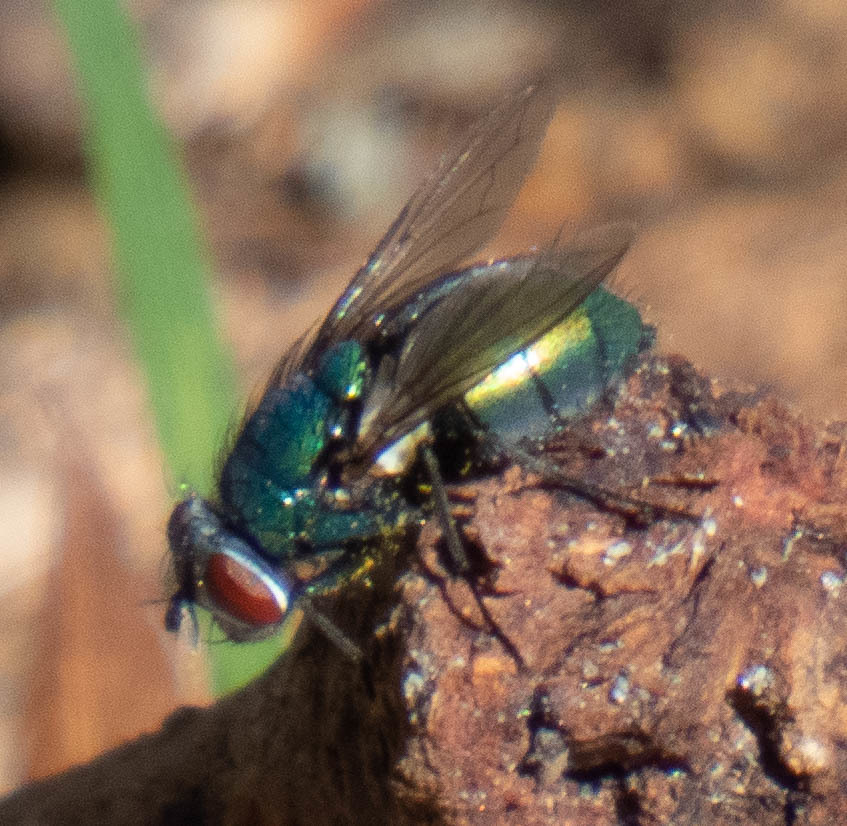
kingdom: Animalia
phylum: Arthropoda
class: Insecta
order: Diptera
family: Calliphoridae
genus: Lucilia
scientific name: Lucilia sericata
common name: Blow fly
